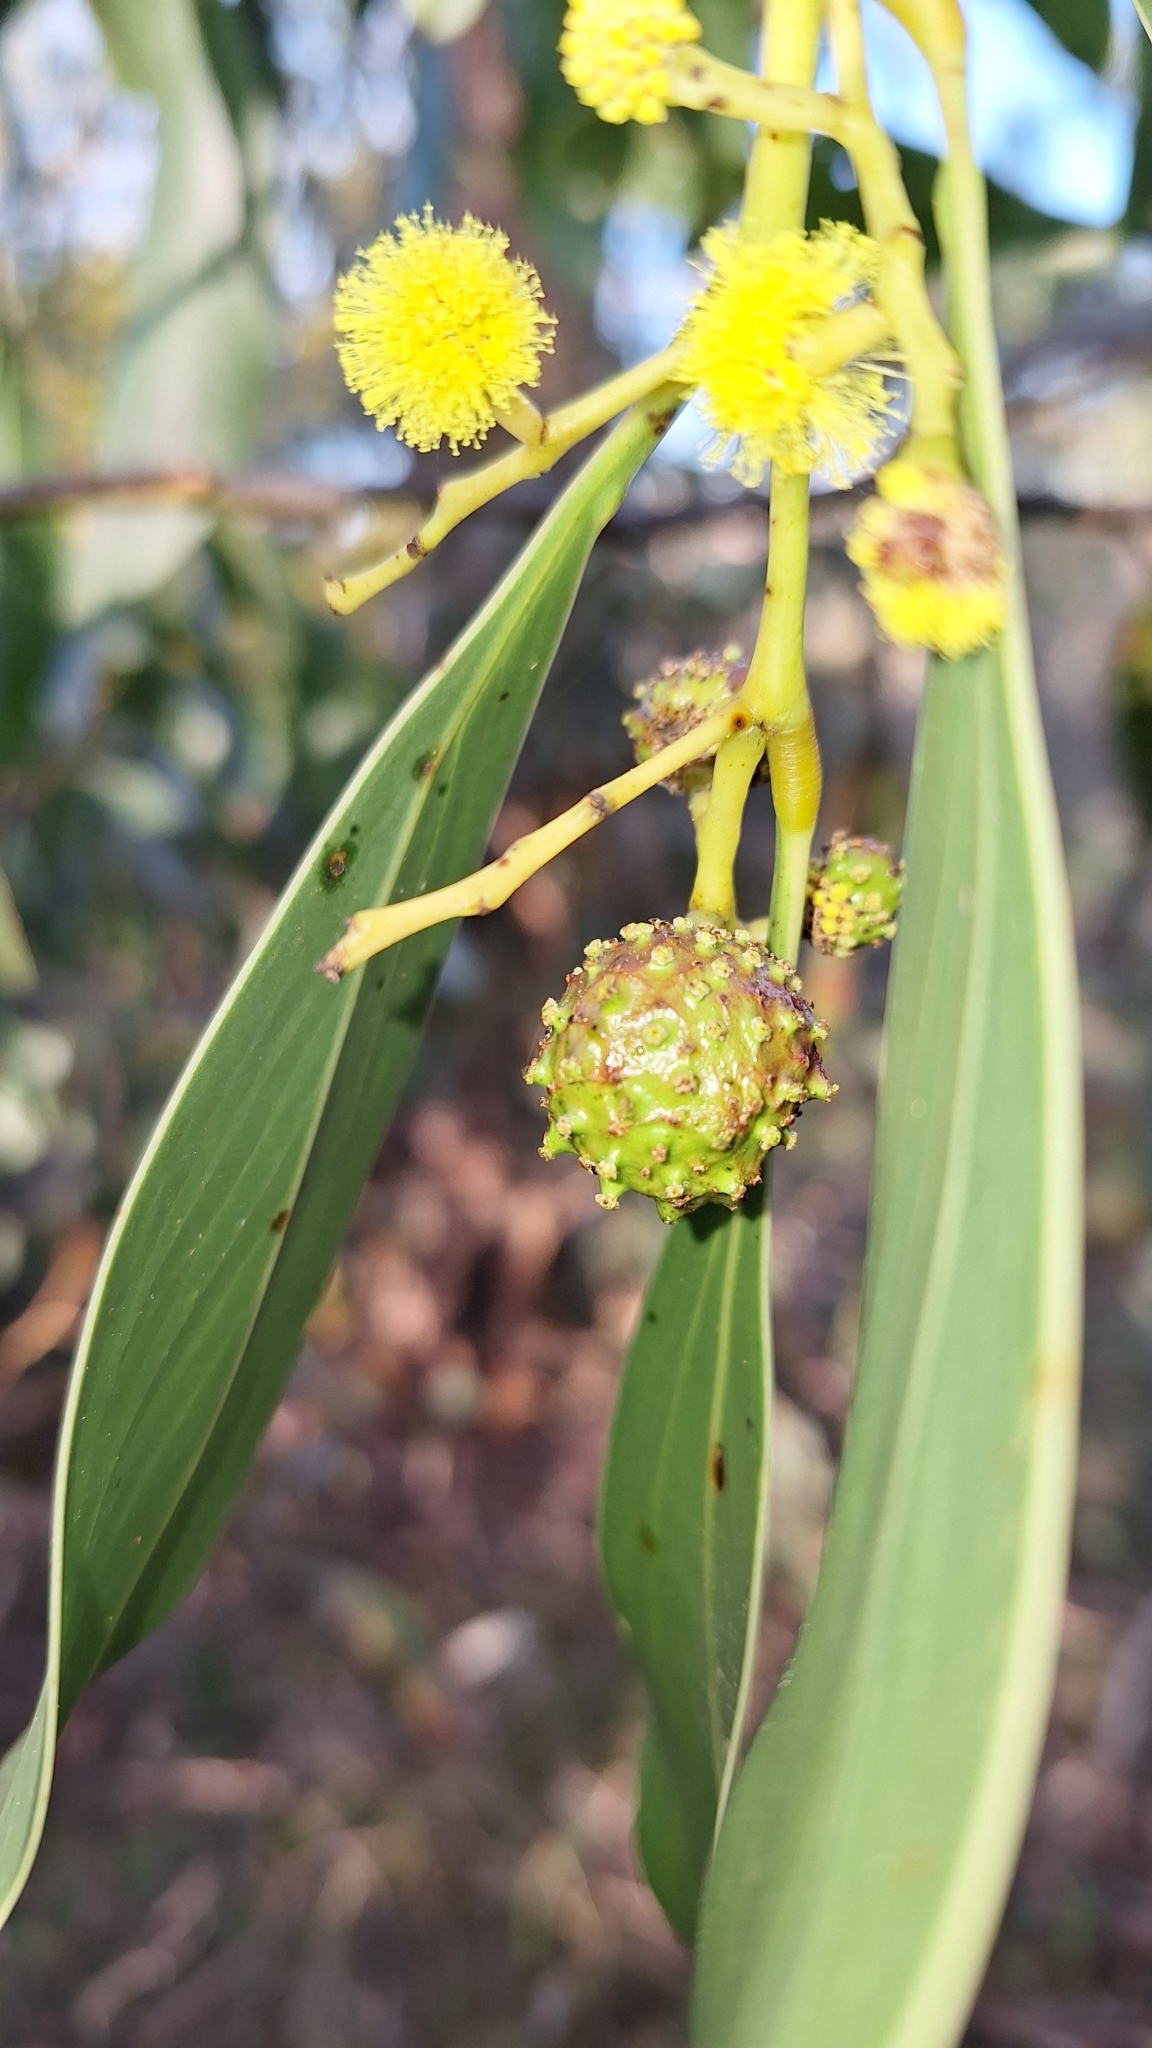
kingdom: Animalia
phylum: Arthropoda
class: Insecta
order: Hymenoptera
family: Pteromalidae
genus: Trichilogaster
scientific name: Trichilogaster signiventris
